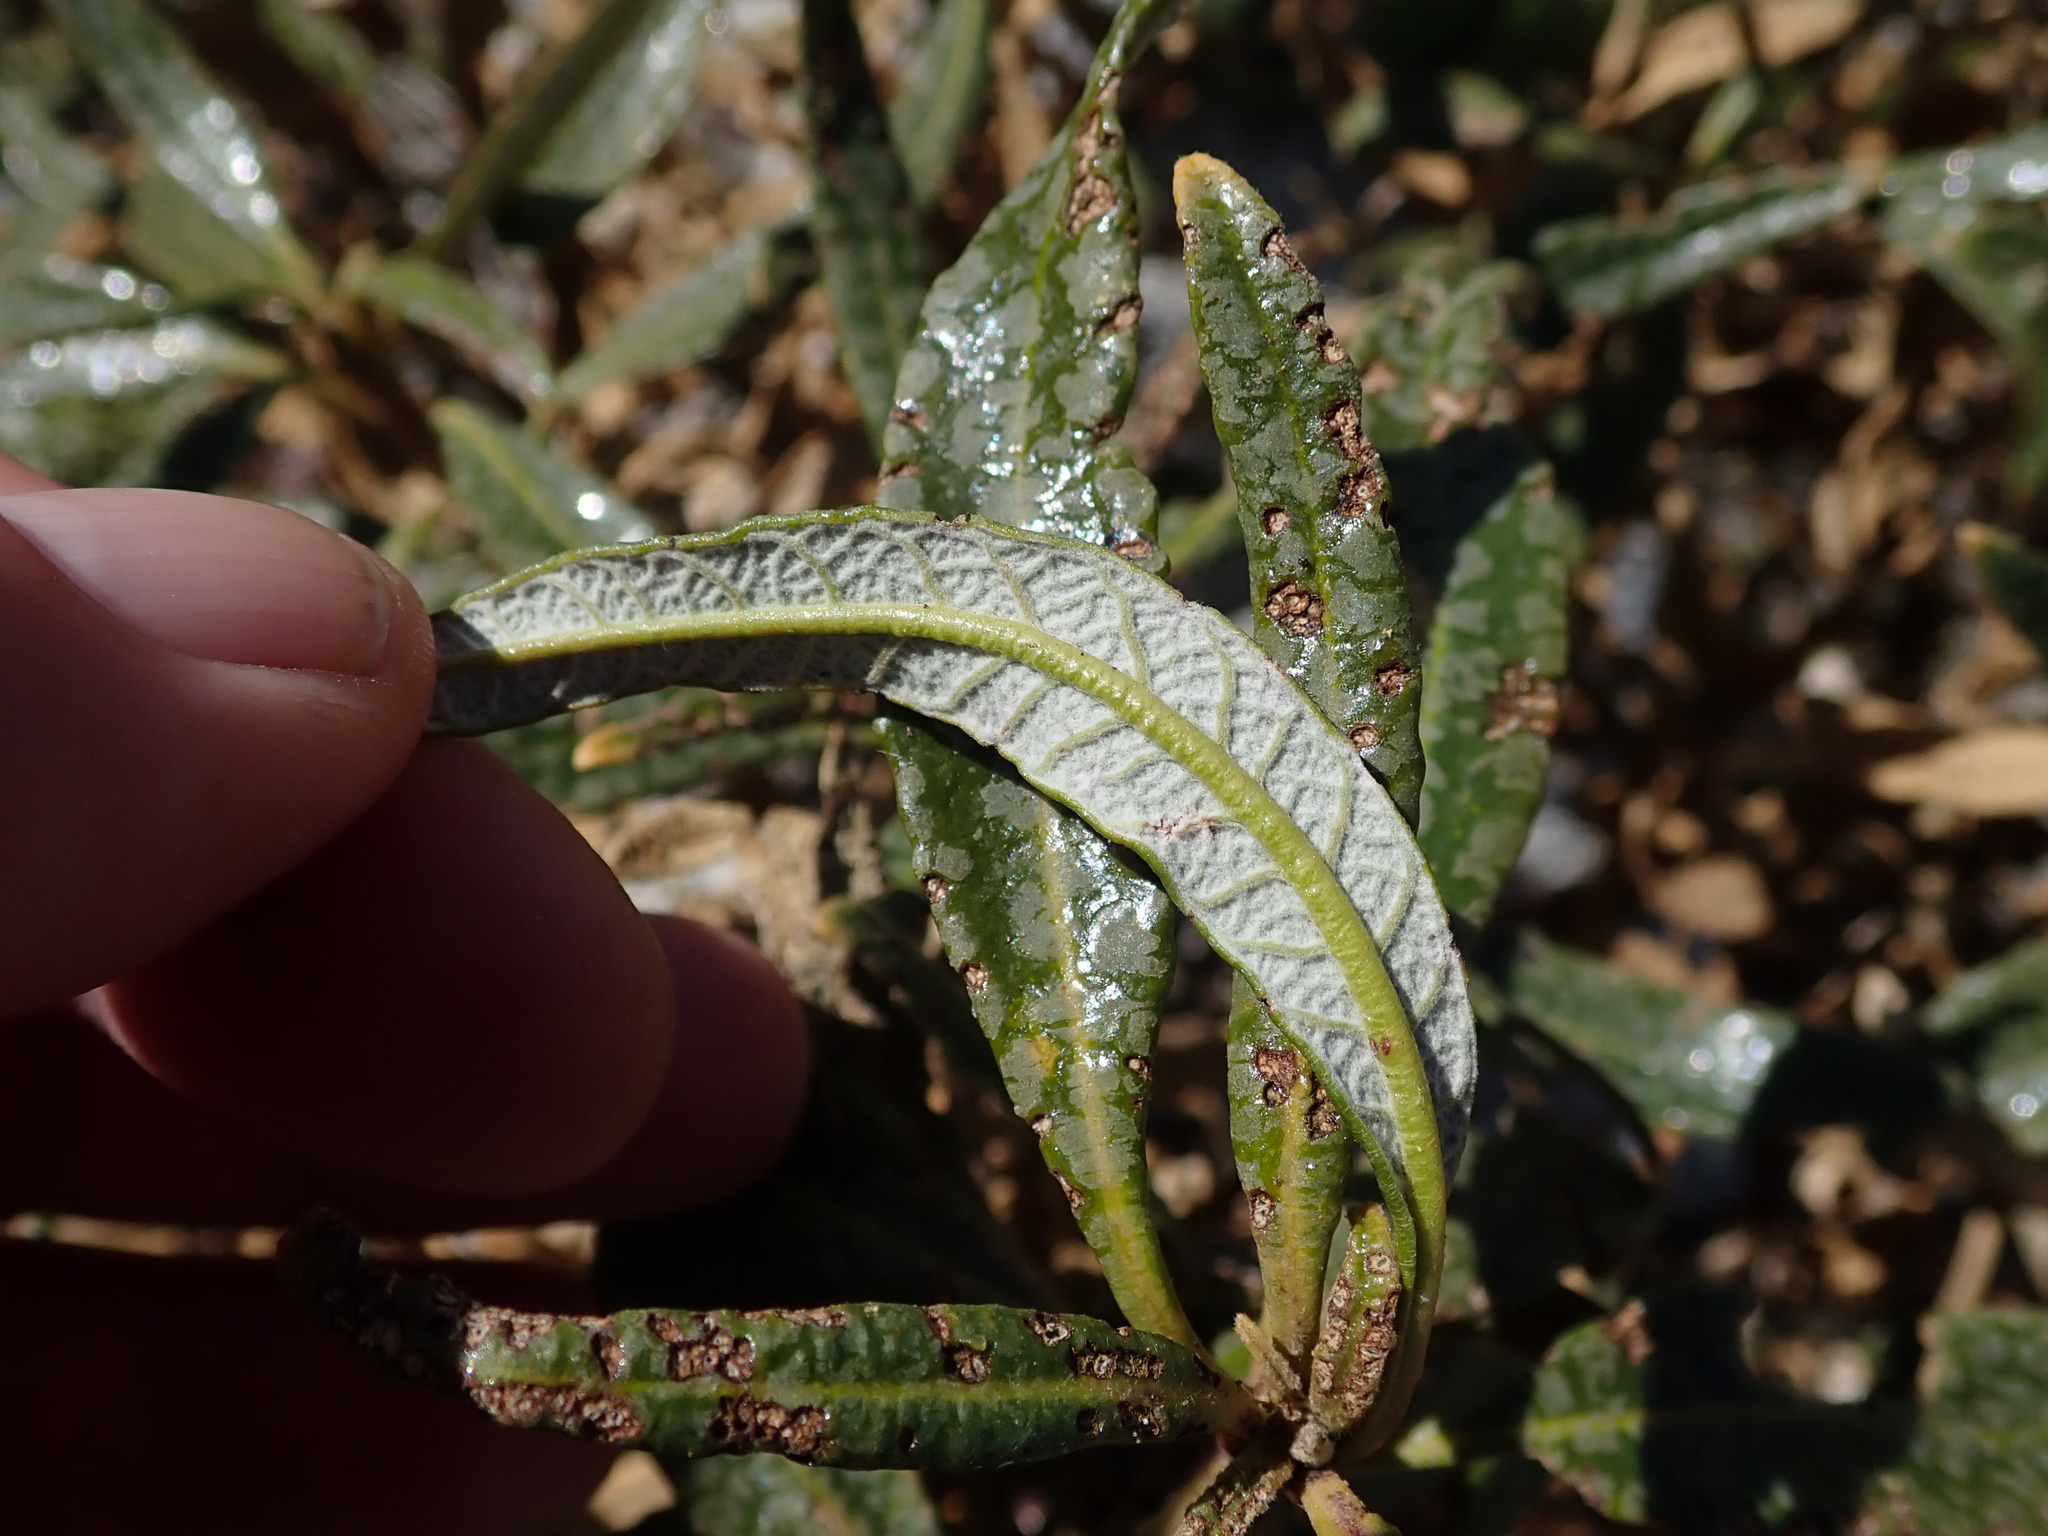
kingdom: Plantae
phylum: Tracheophyta
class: Magnoliopsida
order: Boraginales
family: Namaceae
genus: Eriodictyon
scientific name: Eriodictyon trichocalyx
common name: Hairy yerba-santa
